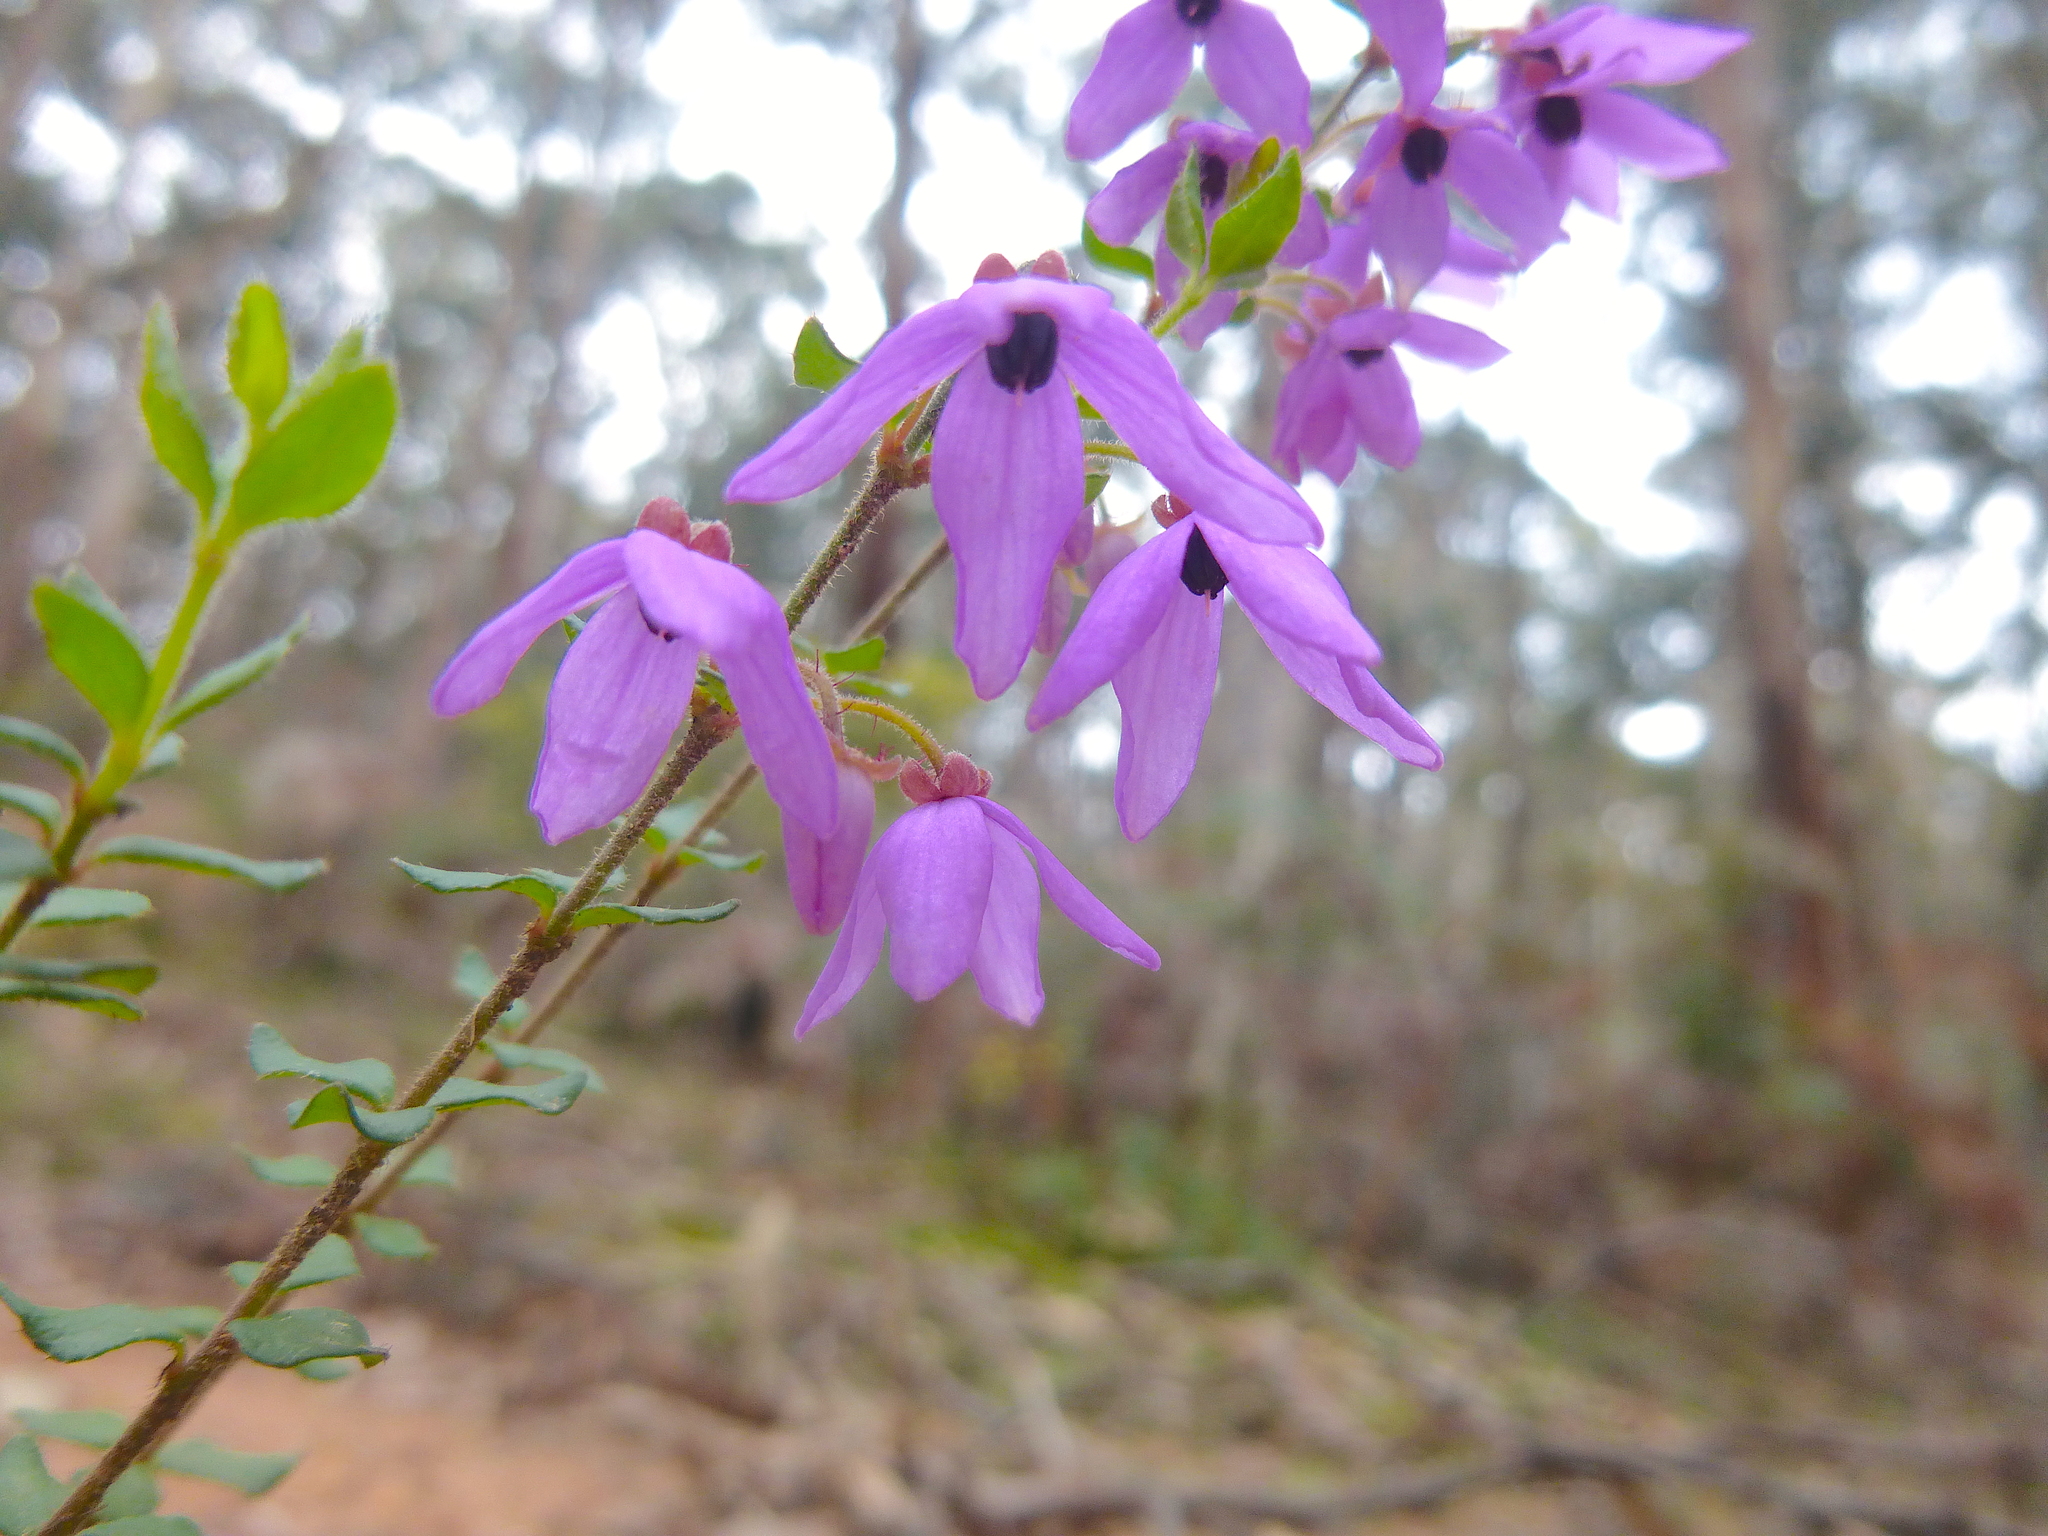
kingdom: Plantae
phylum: Tracheophyta
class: Magnoliopsida
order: Oxalidales
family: Elaeocarpaceae
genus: Tetratheca
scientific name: Tetratheca ciliata
